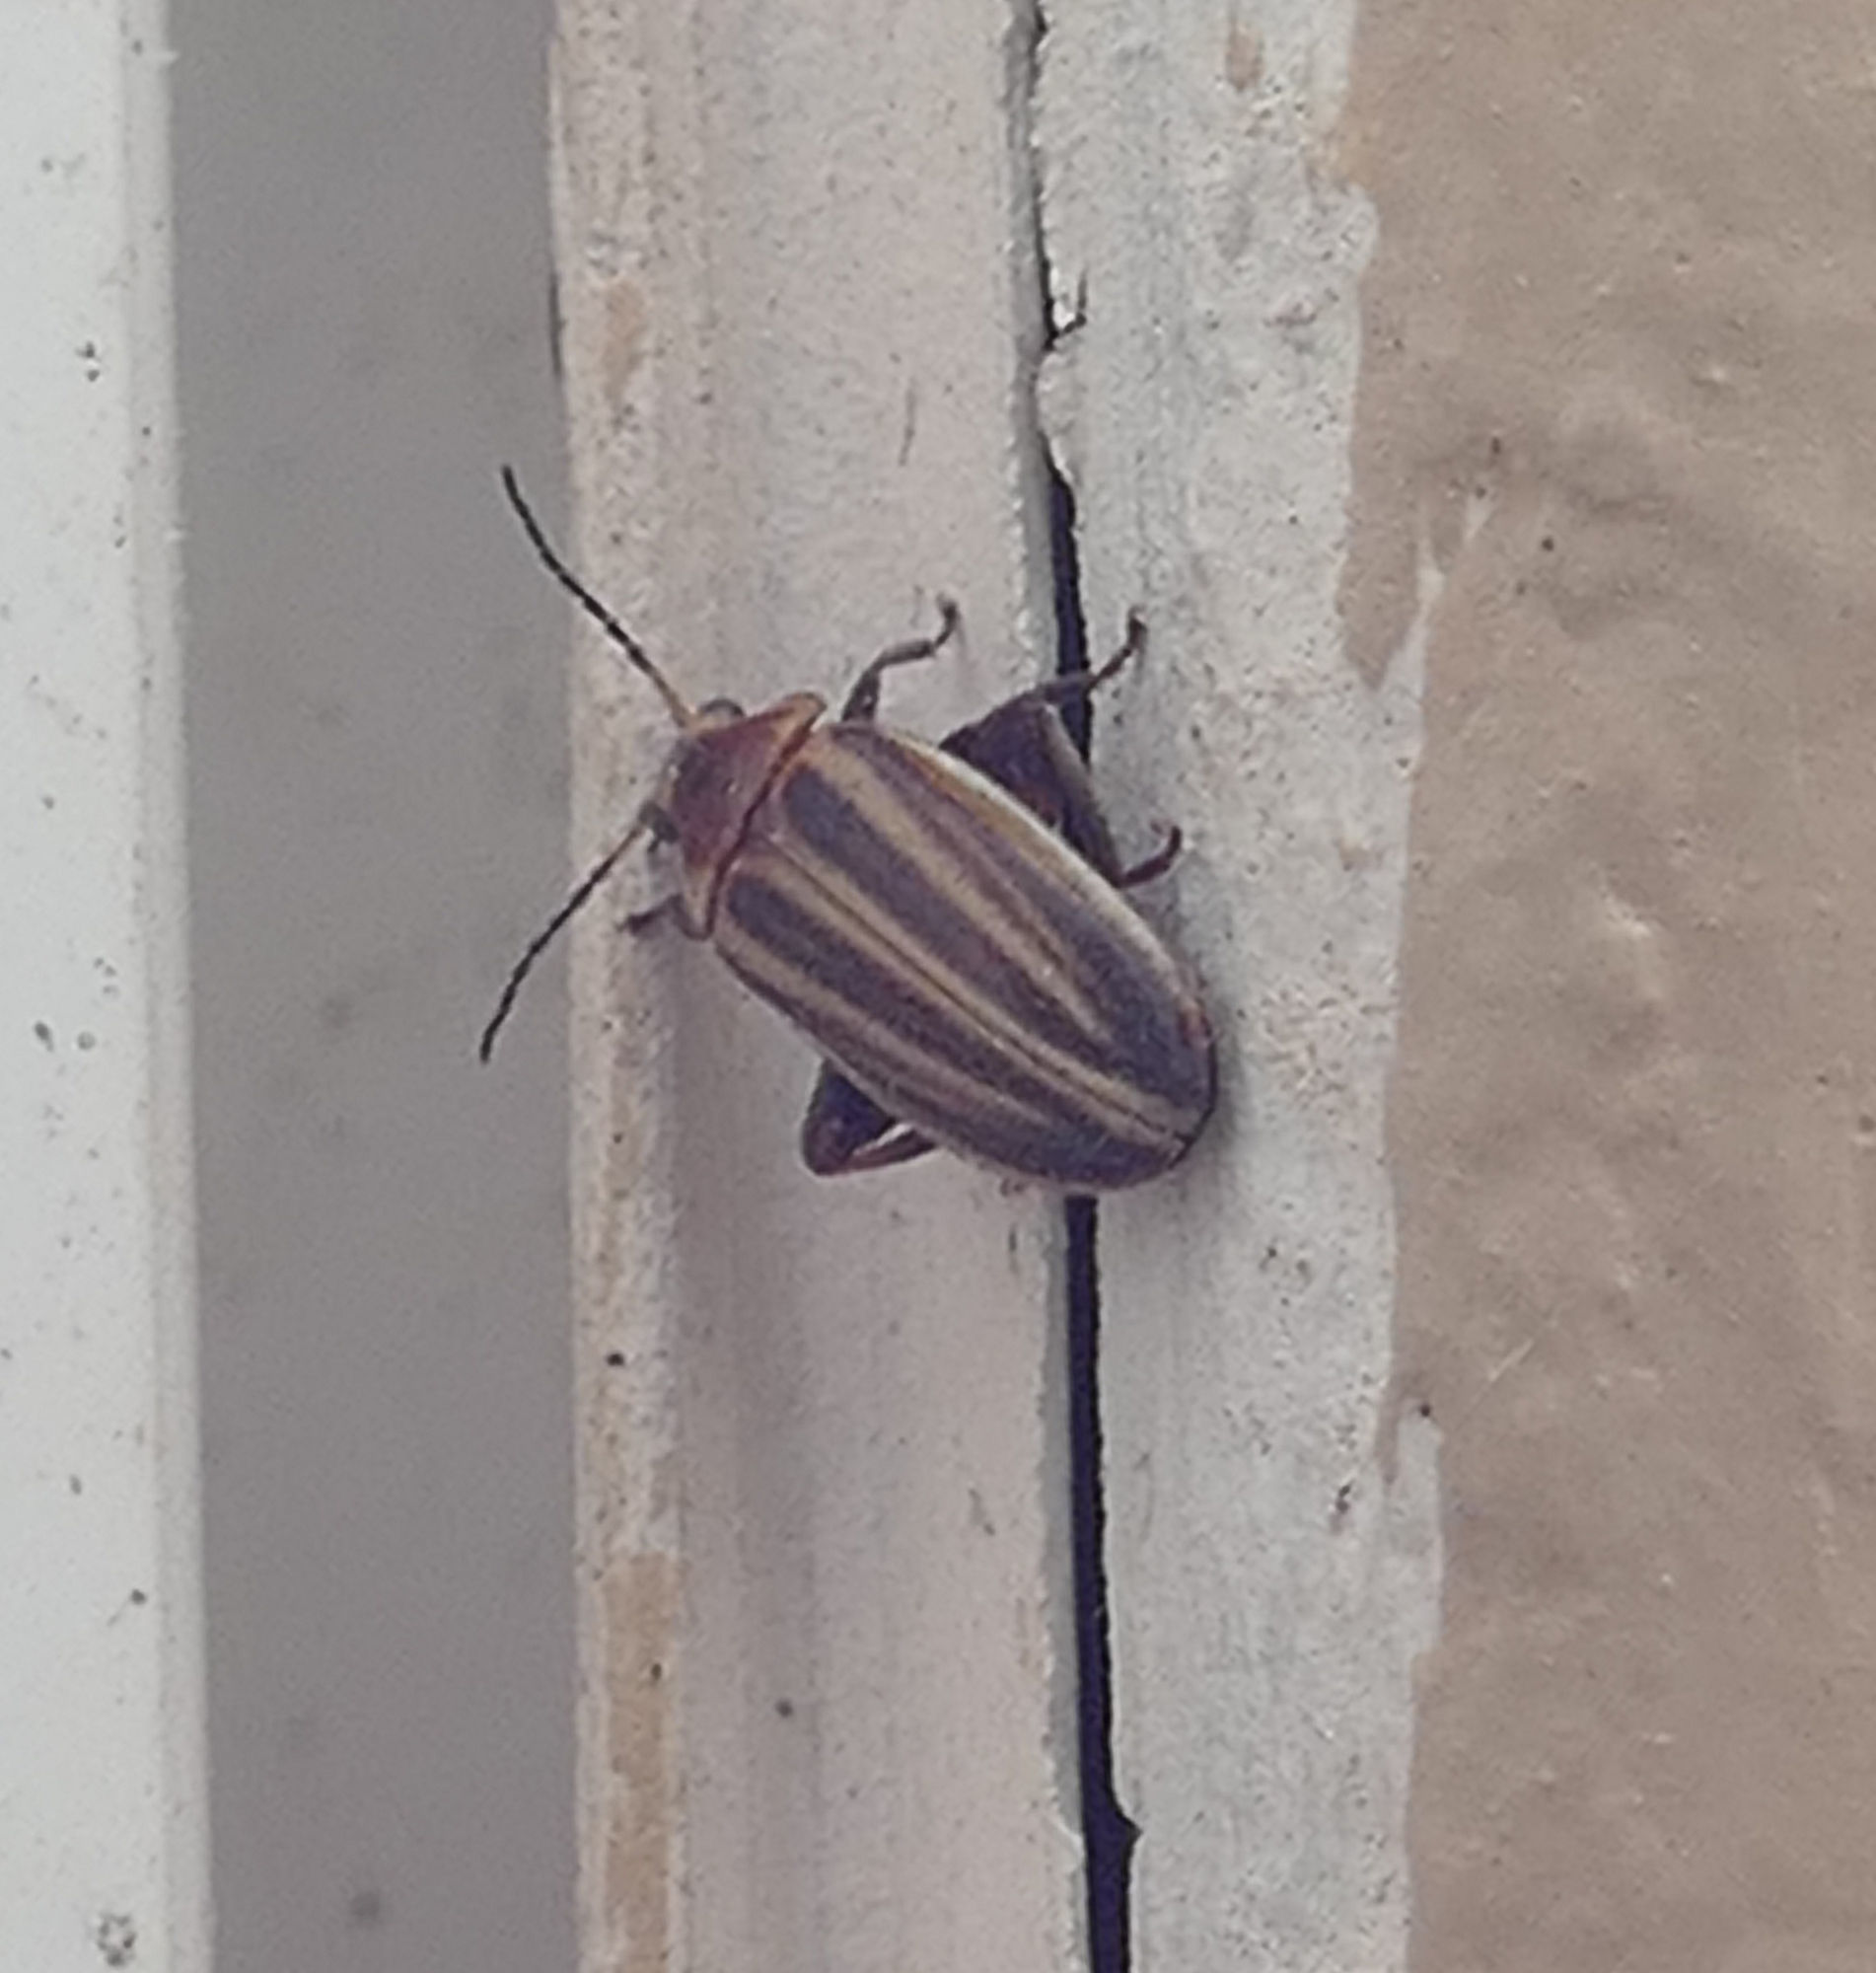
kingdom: Animalia
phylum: Arthropoda
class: Insecta
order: Coleoptera
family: Scirtidae
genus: Scirtes
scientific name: Scirtes oblongus
